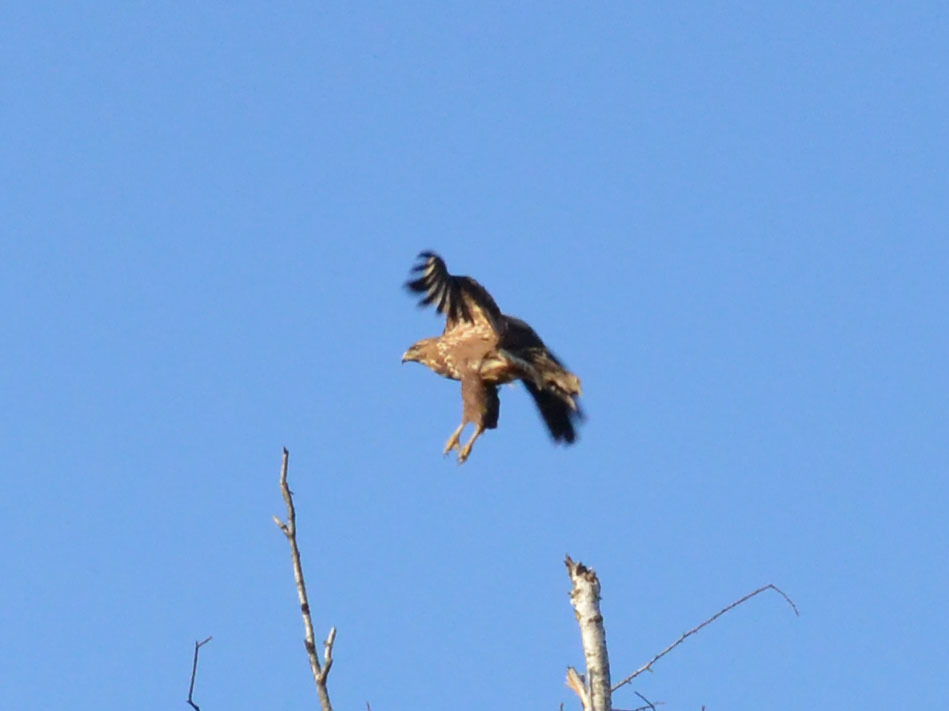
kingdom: Animalia
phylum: Chordata
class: Aves
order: Accipitriformes
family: Accipitridae
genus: Buteo
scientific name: Buteo buteo
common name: Common buzzard
